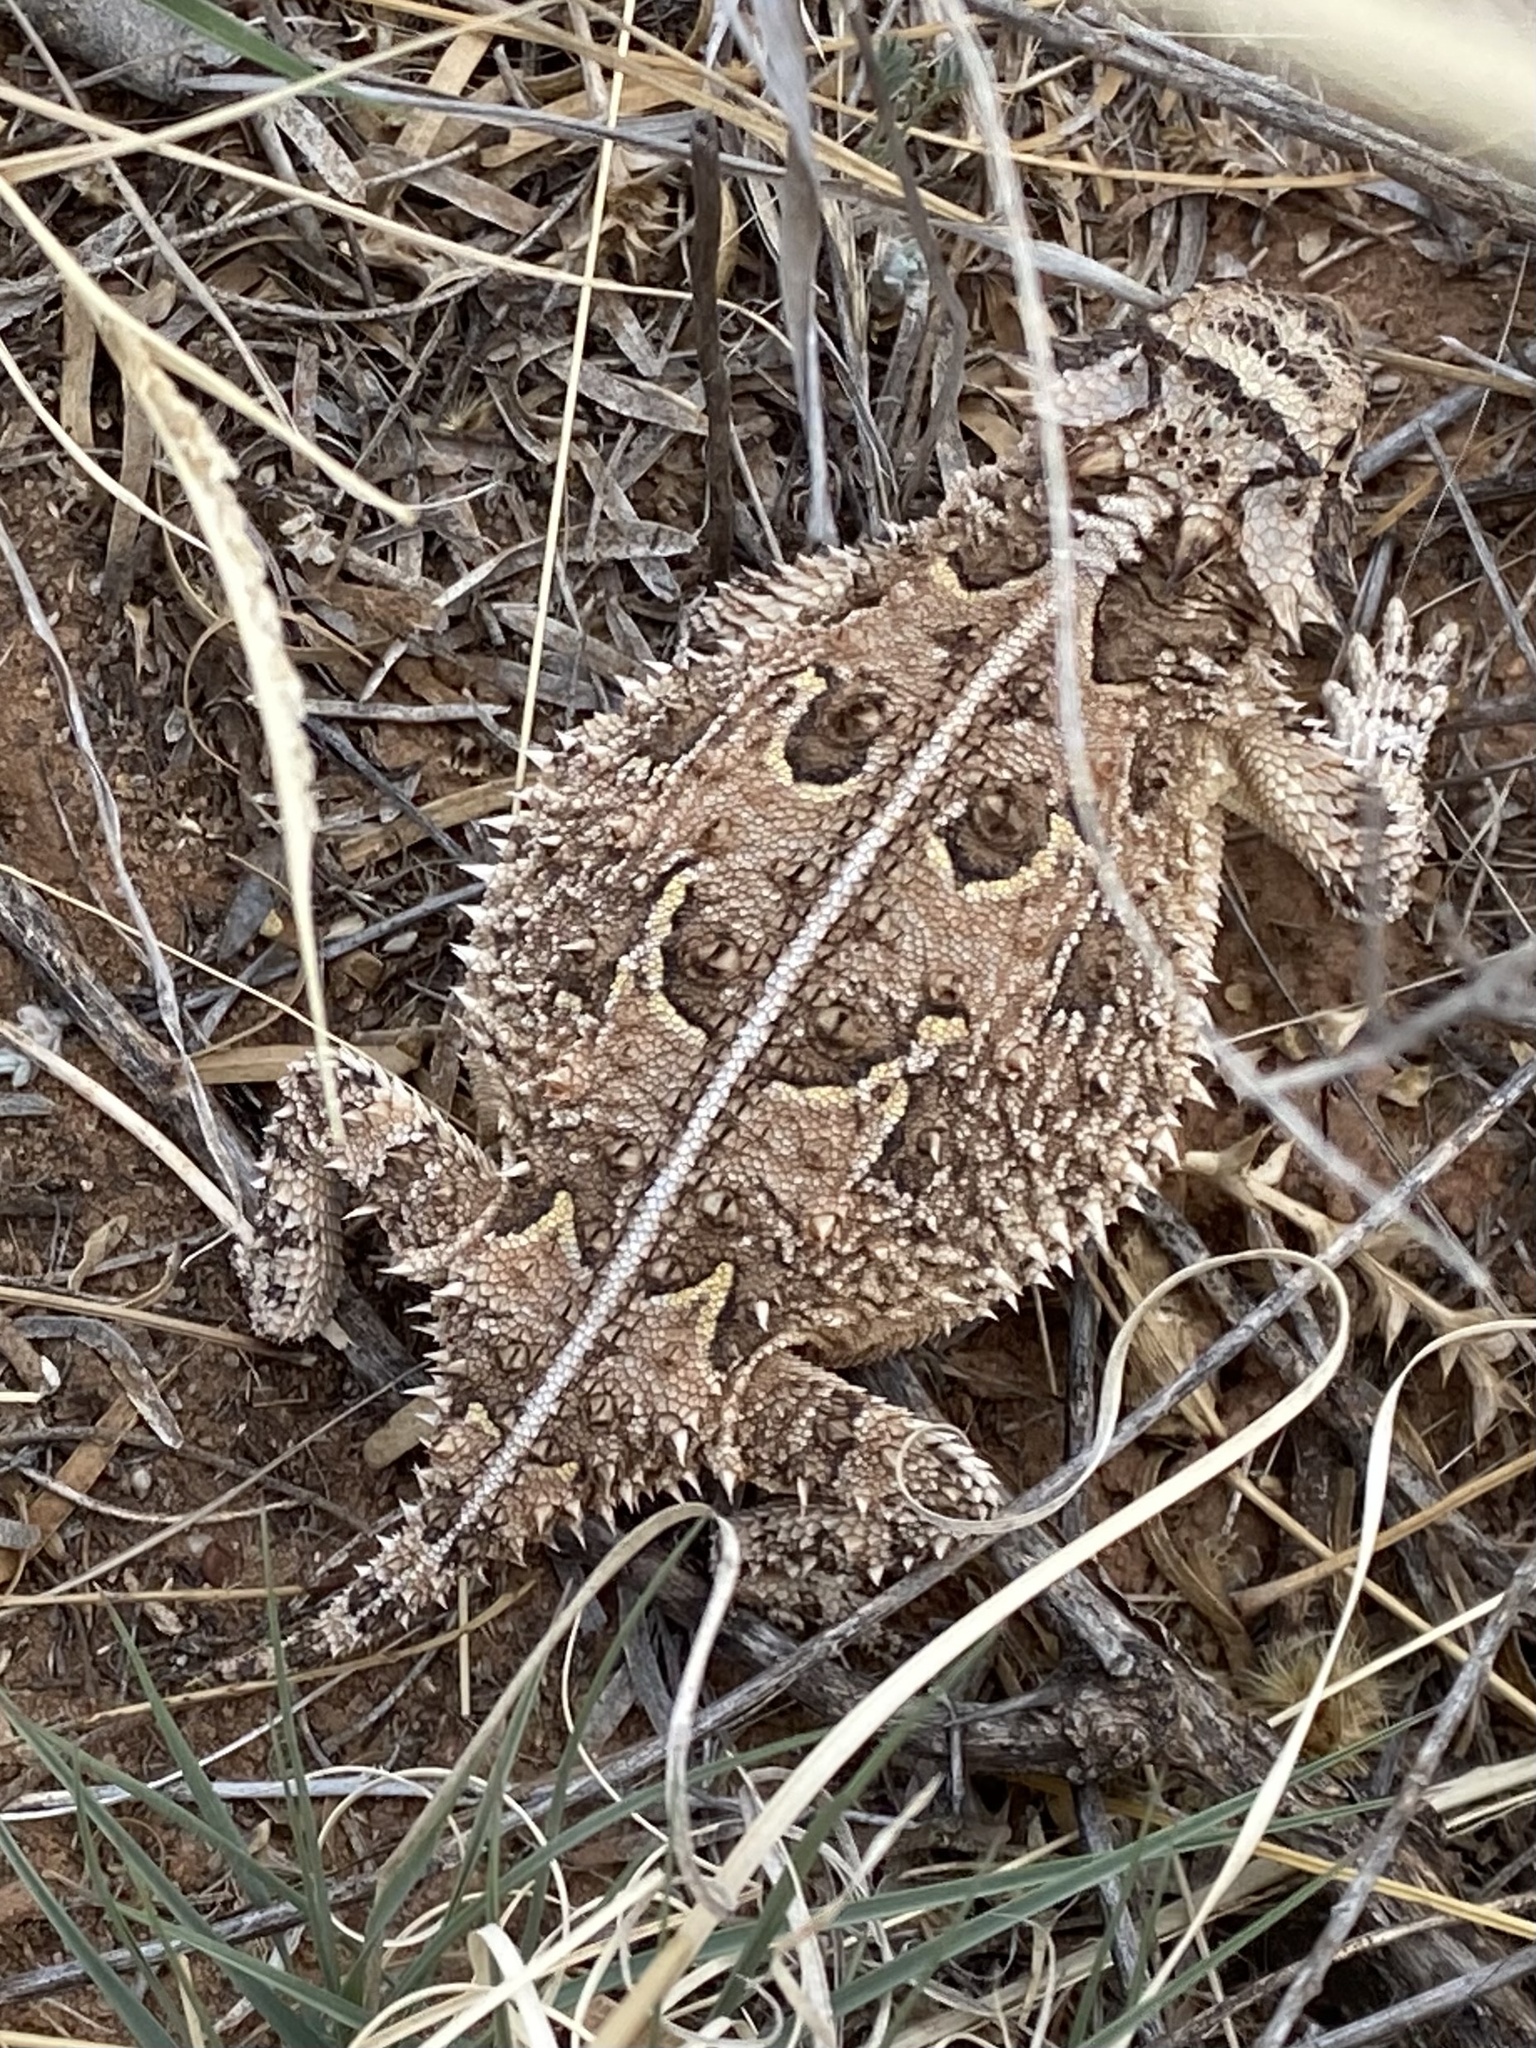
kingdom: Animalia
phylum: Chordata
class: Squamata
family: Phrynosomatidae
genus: Phrynosoma
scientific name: Phrynosoma cornutum
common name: Texas horned lizard
